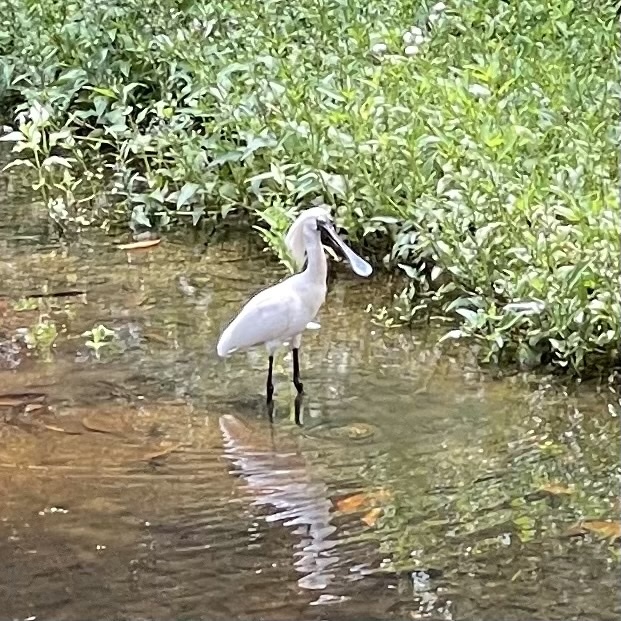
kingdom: Animalia
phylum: Chordata
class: Aves
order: Pelecaniformes
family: Threskiornithidae
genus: Platalea
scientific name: Platalea regia
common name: Royal spoonbill
